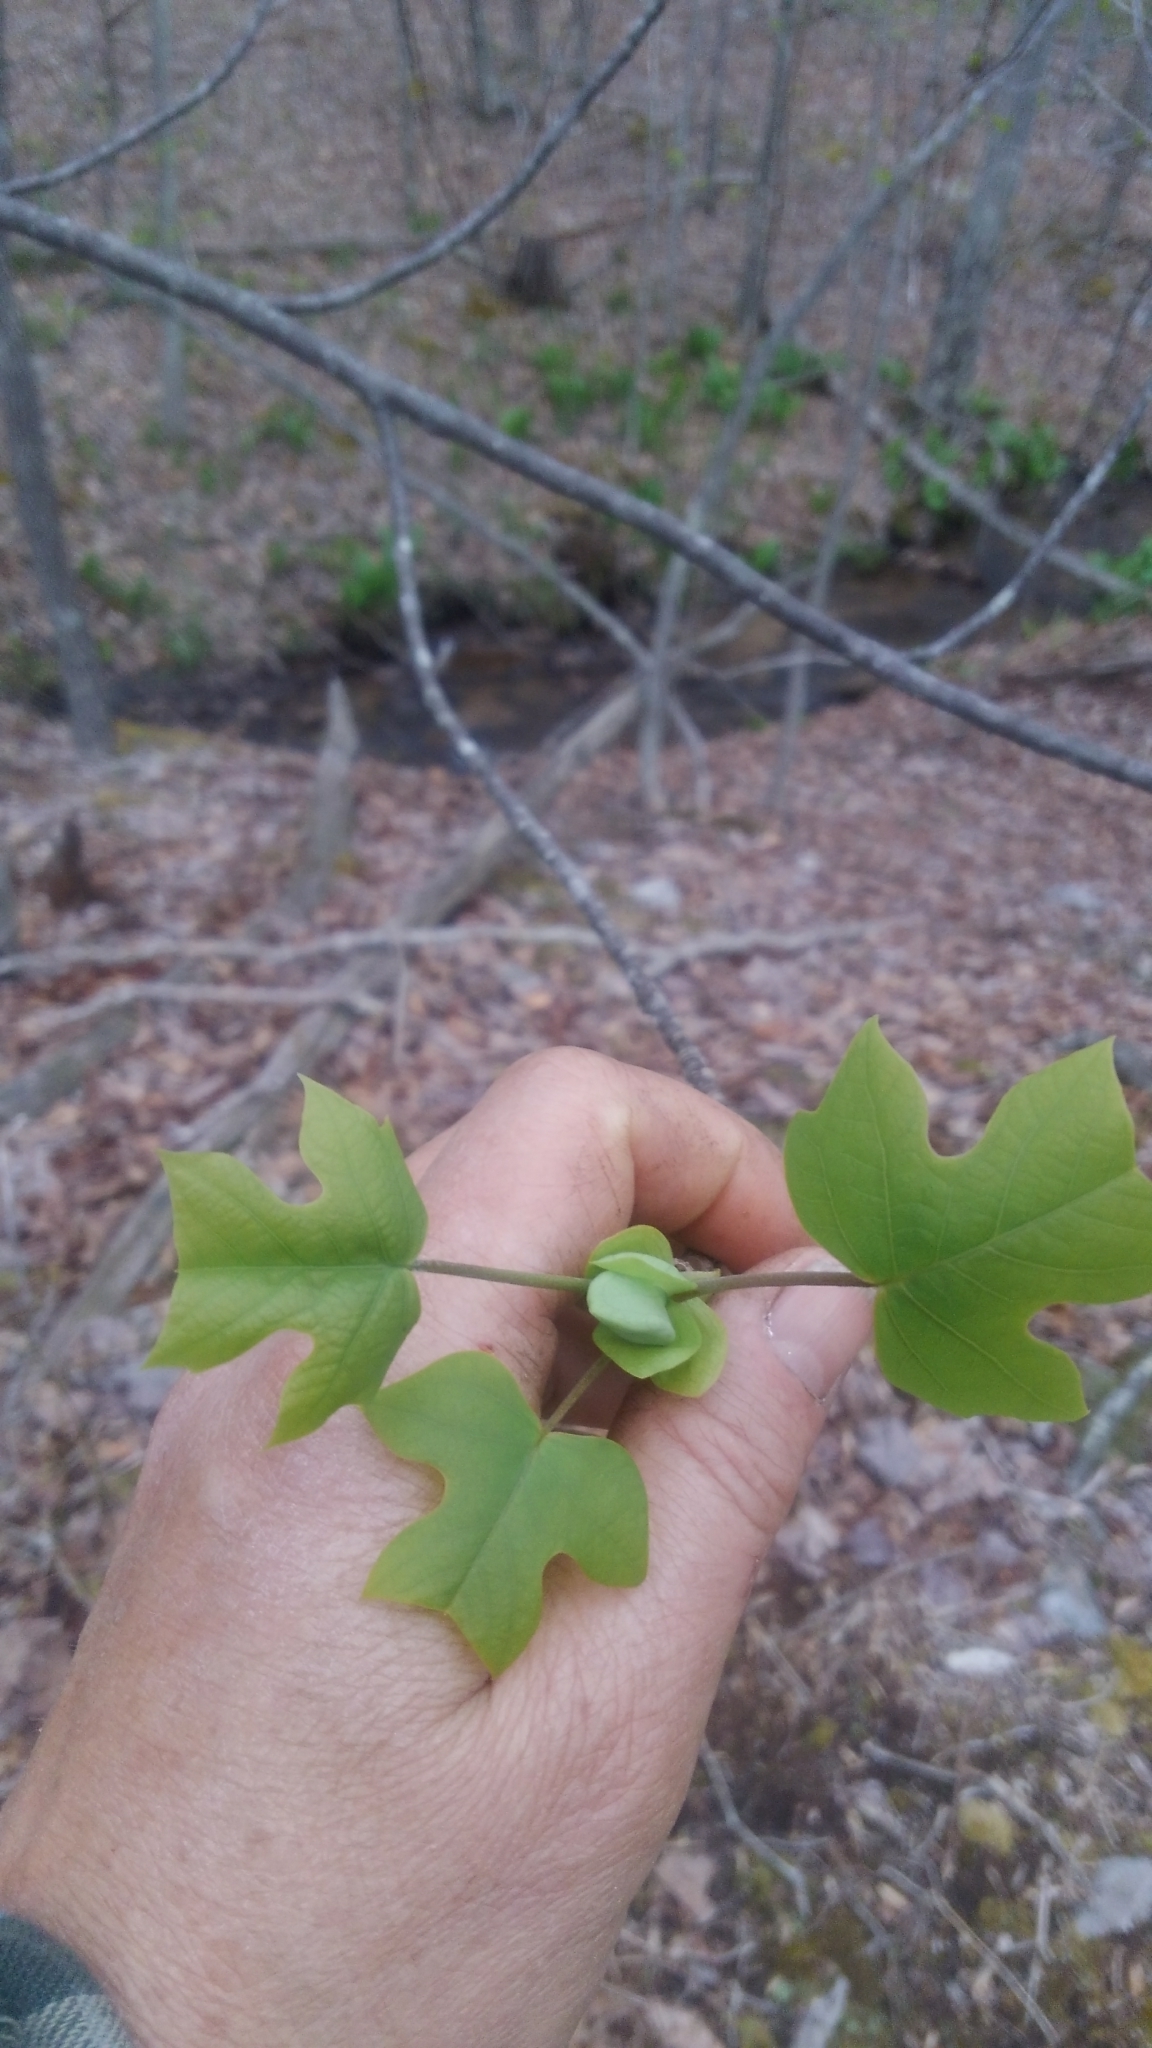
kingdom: Plantae
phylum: Tracheophyta
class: Magnoliopsida
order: Magnoliales
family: Magnoliaceae
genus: Liriodendron
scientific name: Liriodendron tulipifera
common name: Tulip tree
